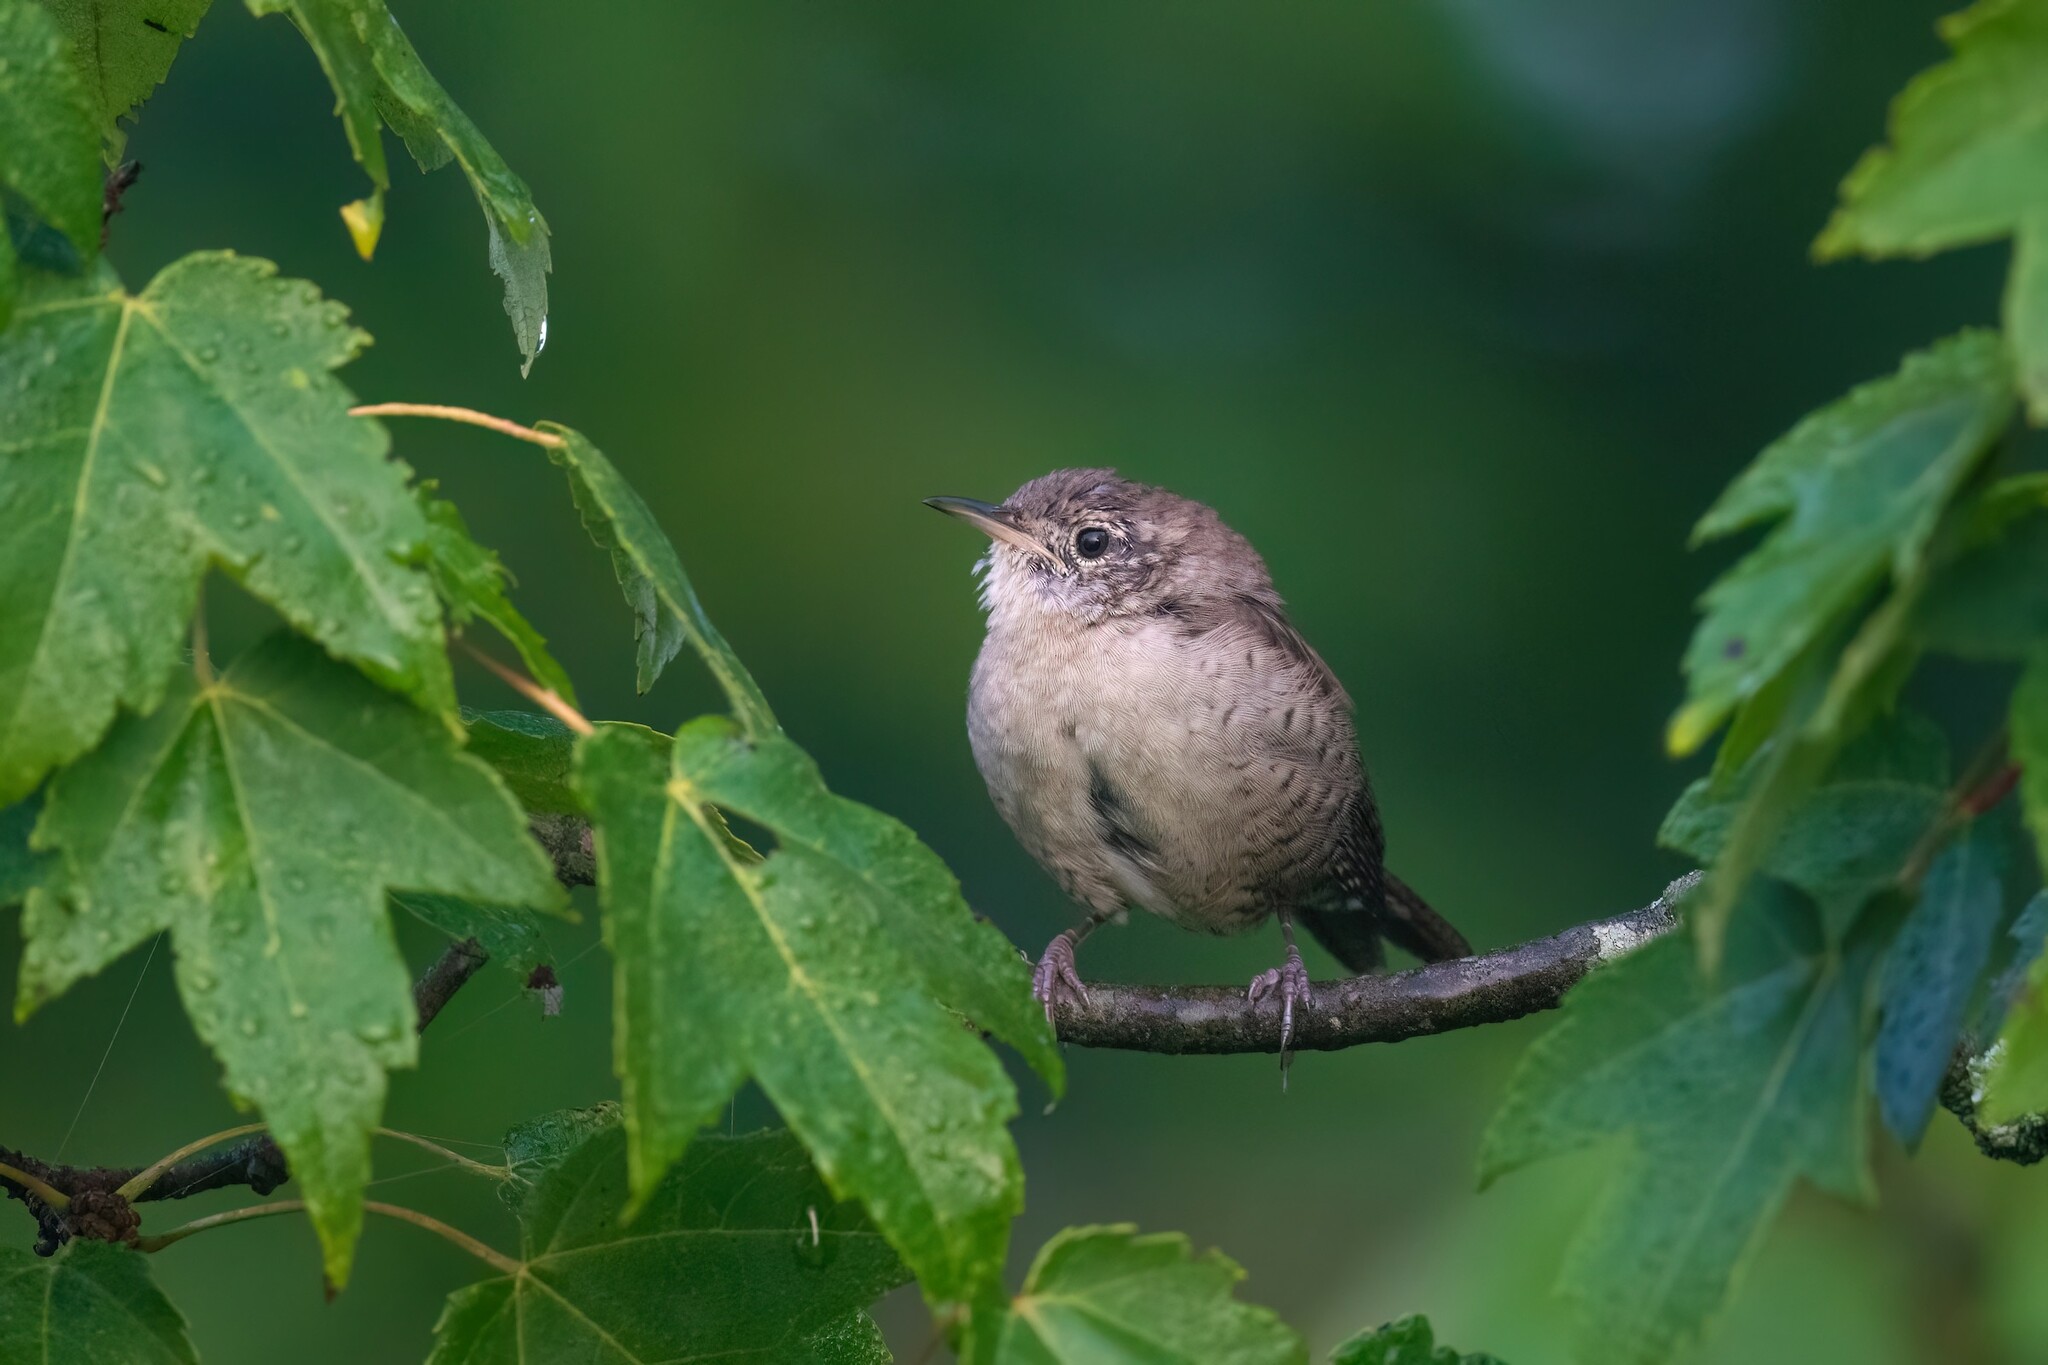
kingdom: Animalia
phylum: Chordata
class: Aves
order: Passeriformes
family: Troglodytidae
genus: Troglodytes
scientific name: Troglodytes aedon
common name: House wren
